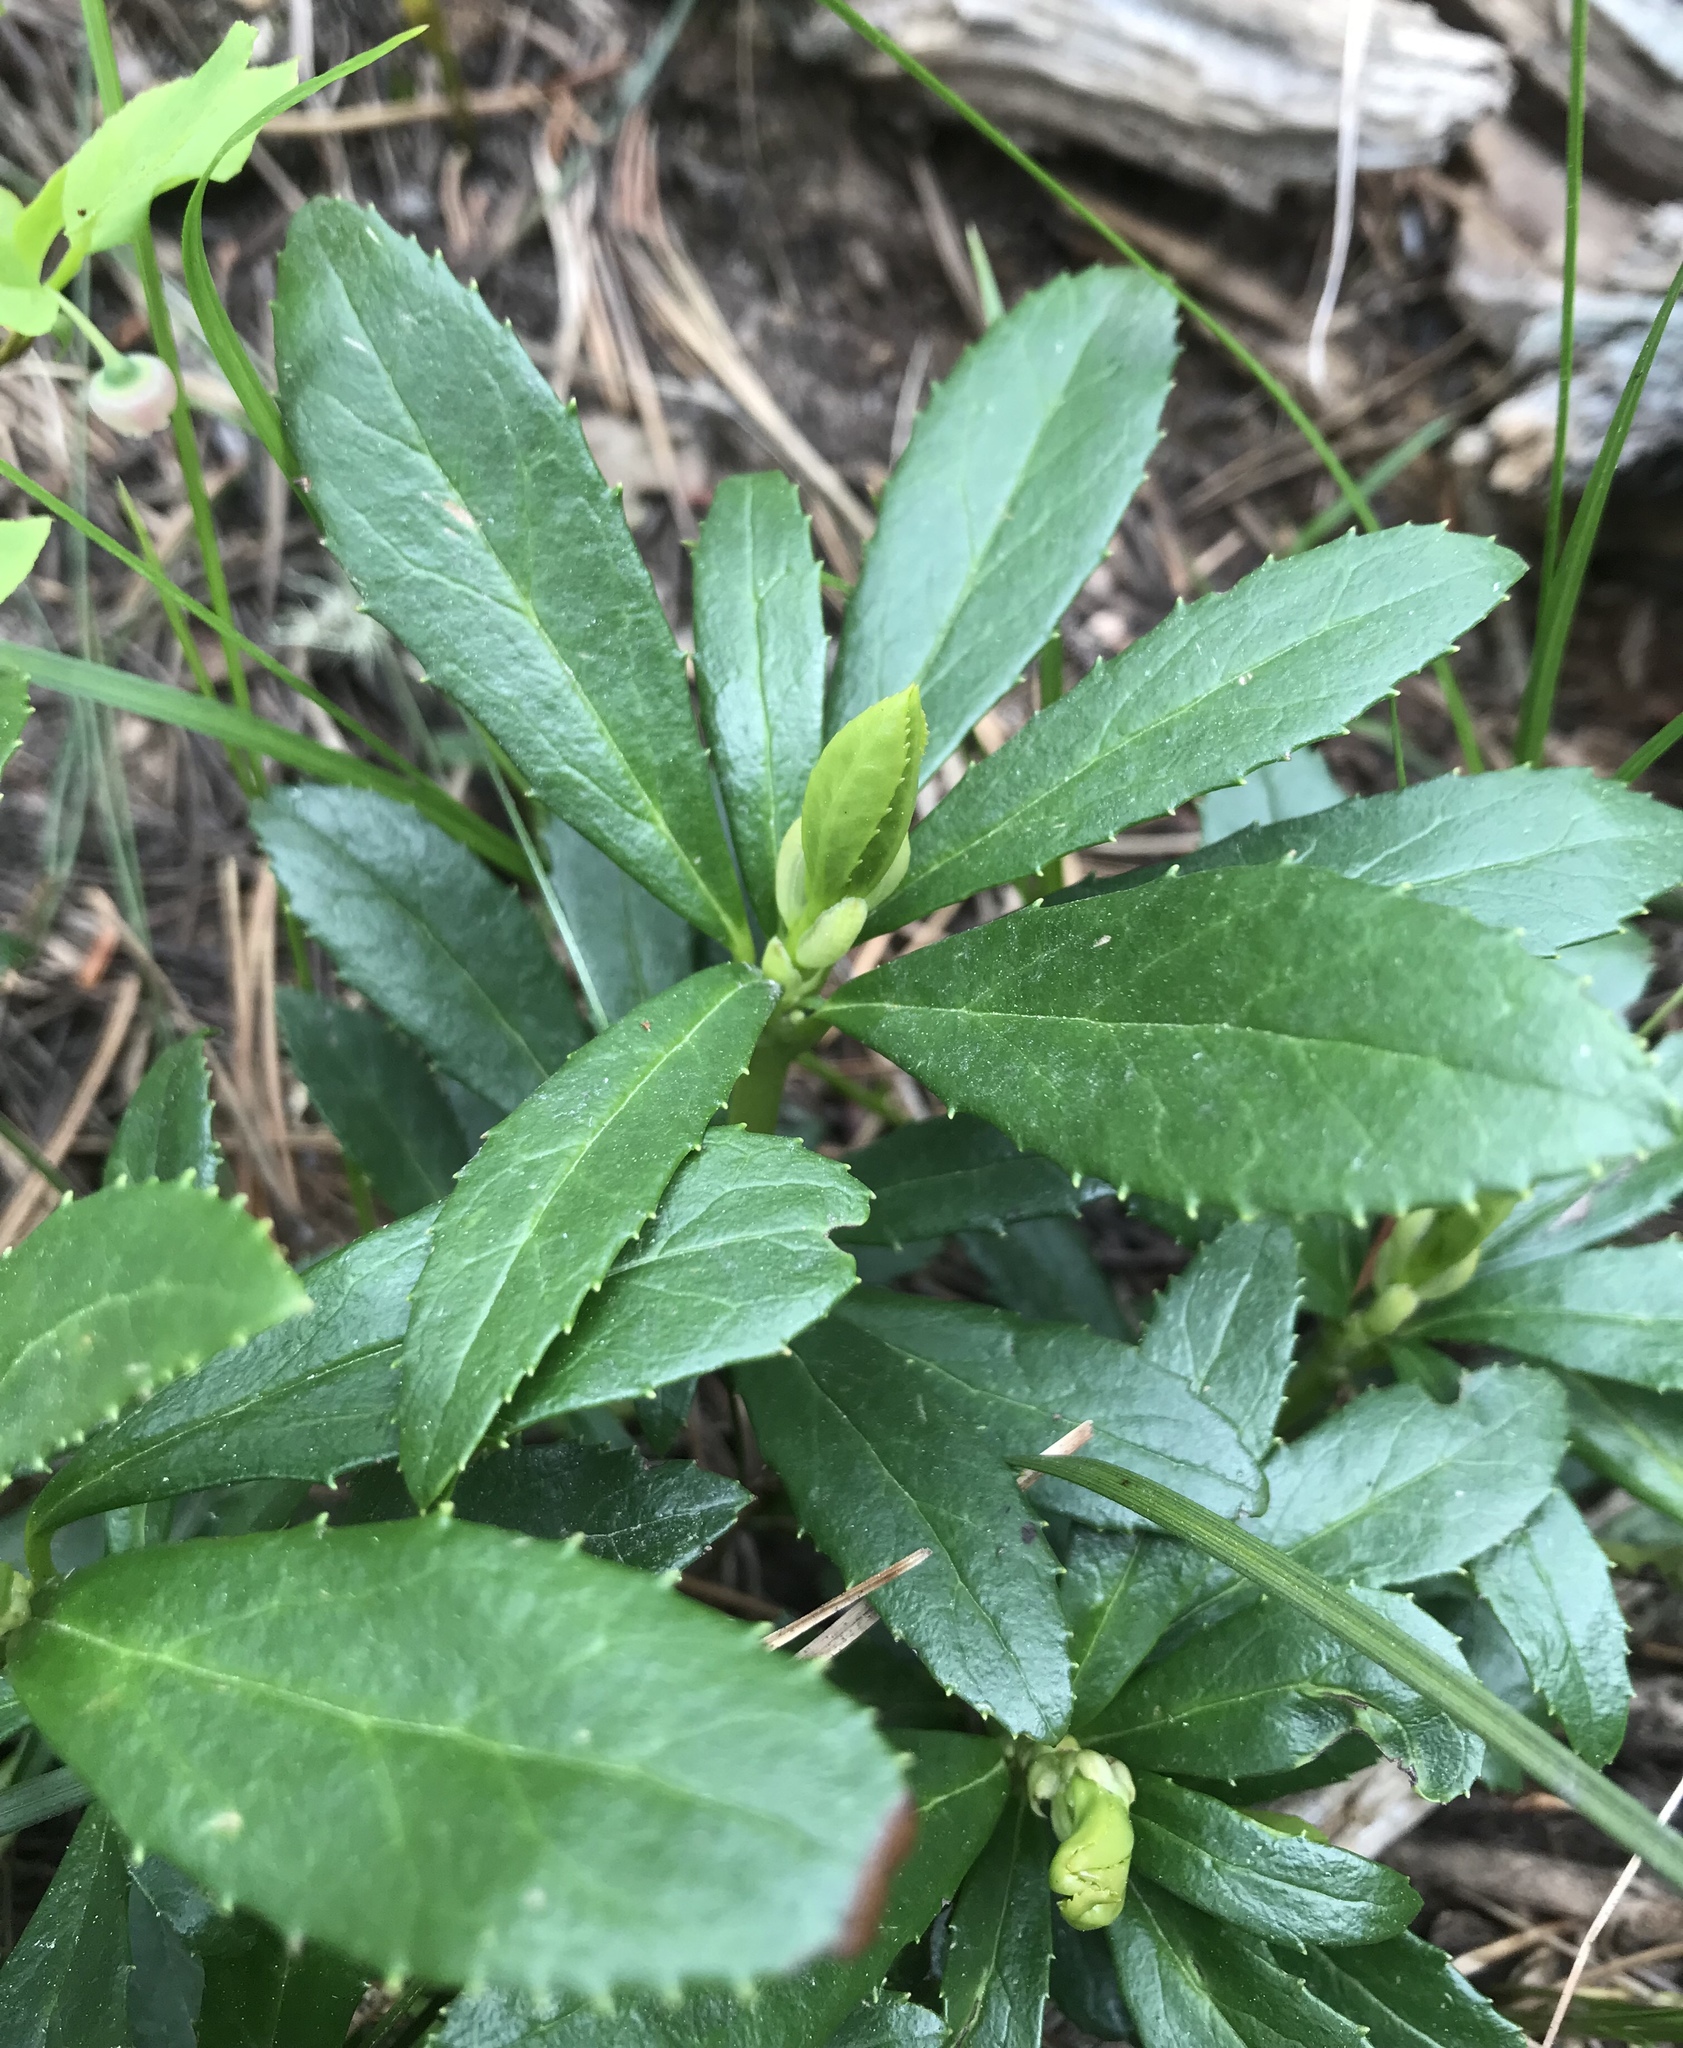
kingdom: Plantae
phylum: Tracheophyta
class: Magnoliopsida
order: Ericales
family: Ericaceae
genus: Chimaphila
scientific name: Chimaphila umbellata
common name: Pipsissewa
